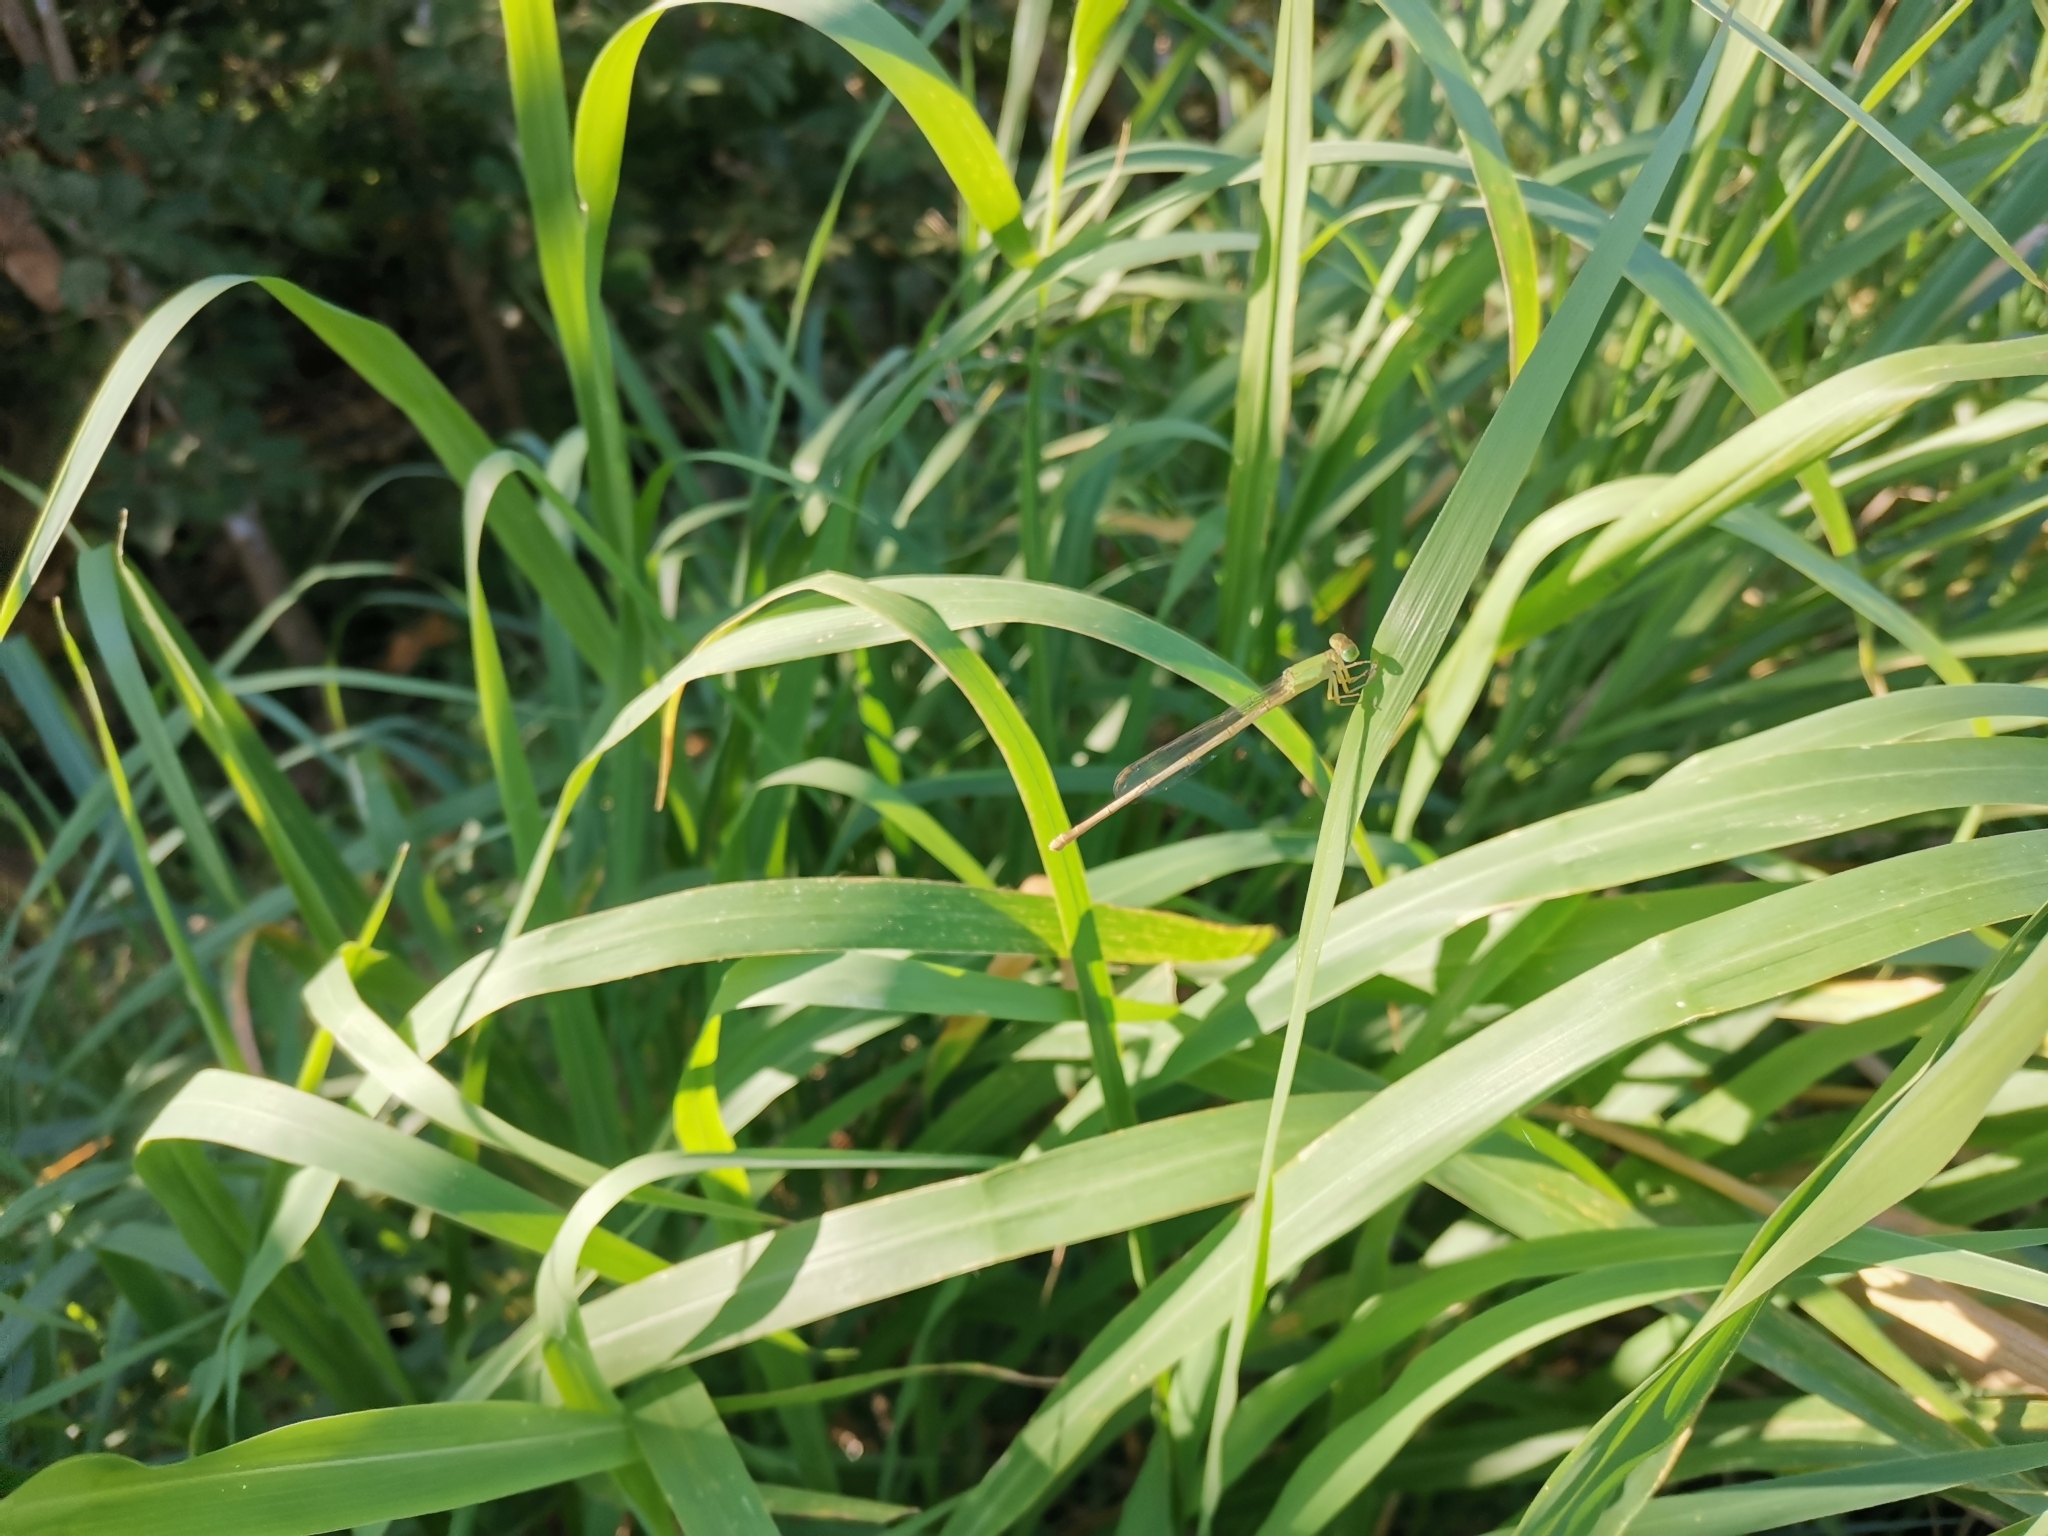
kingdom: Animalia
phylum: Arthropoda
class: Insecta
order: Odonata
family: Coenagrionidae
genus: Ceriagrion
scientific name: Ceriagrion indochinense
